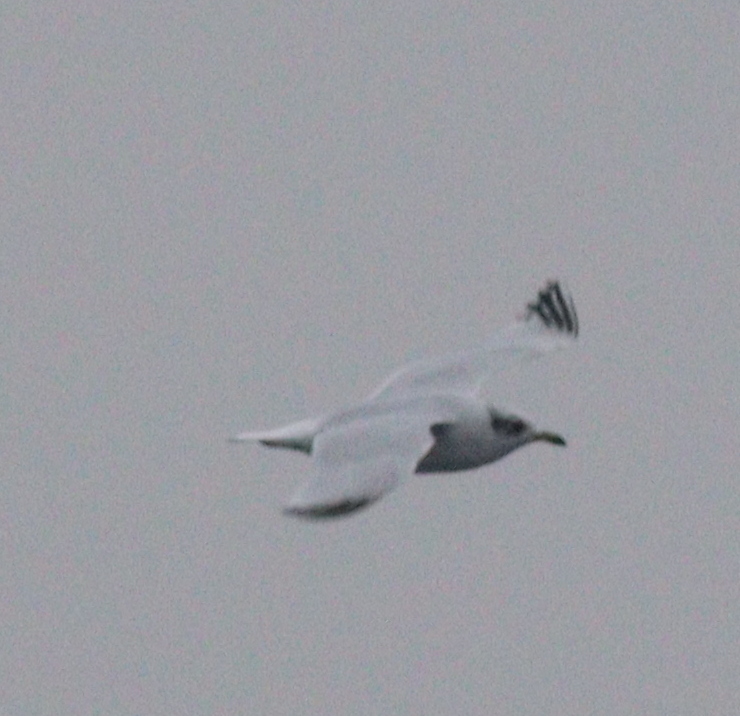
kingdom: Animalia
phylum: Chordata
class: Aves
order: Charadriiformes
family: Laridae
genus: Ichthyaetus
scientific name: Ichthyaetus melanocephalus
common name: Mediterranean gull
